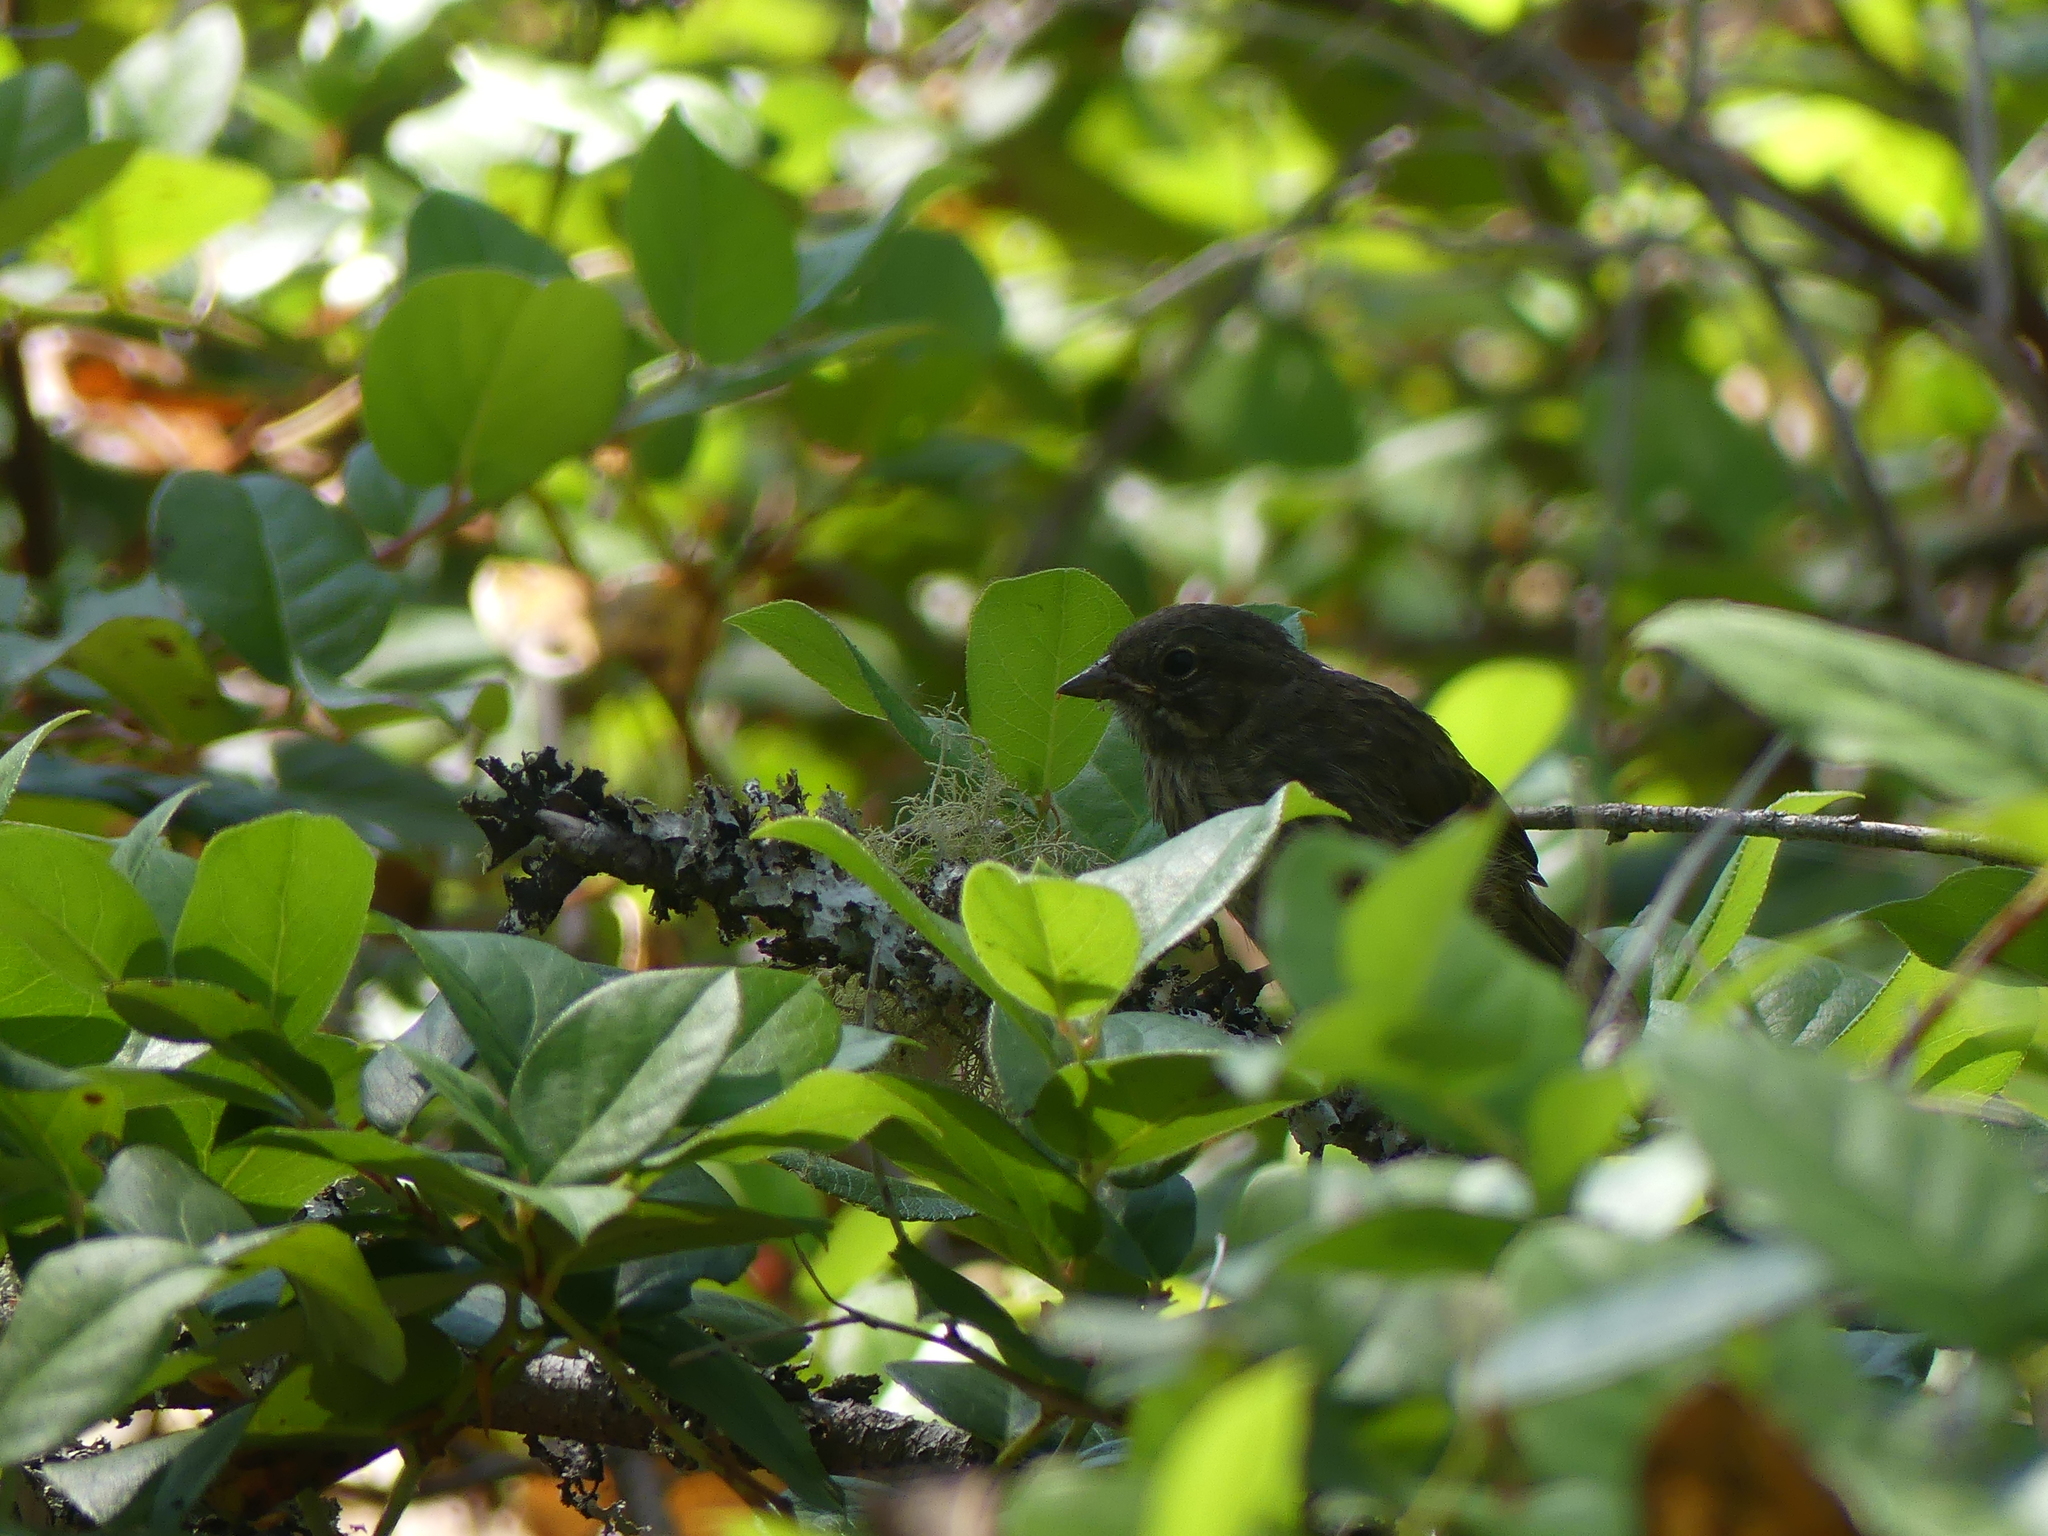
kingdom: Animalia
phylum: Chordata
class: Aves
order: Passeriformes
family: Passerellidae
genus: Melospiza
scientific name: Melospiza melodia
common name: Song sparrow
